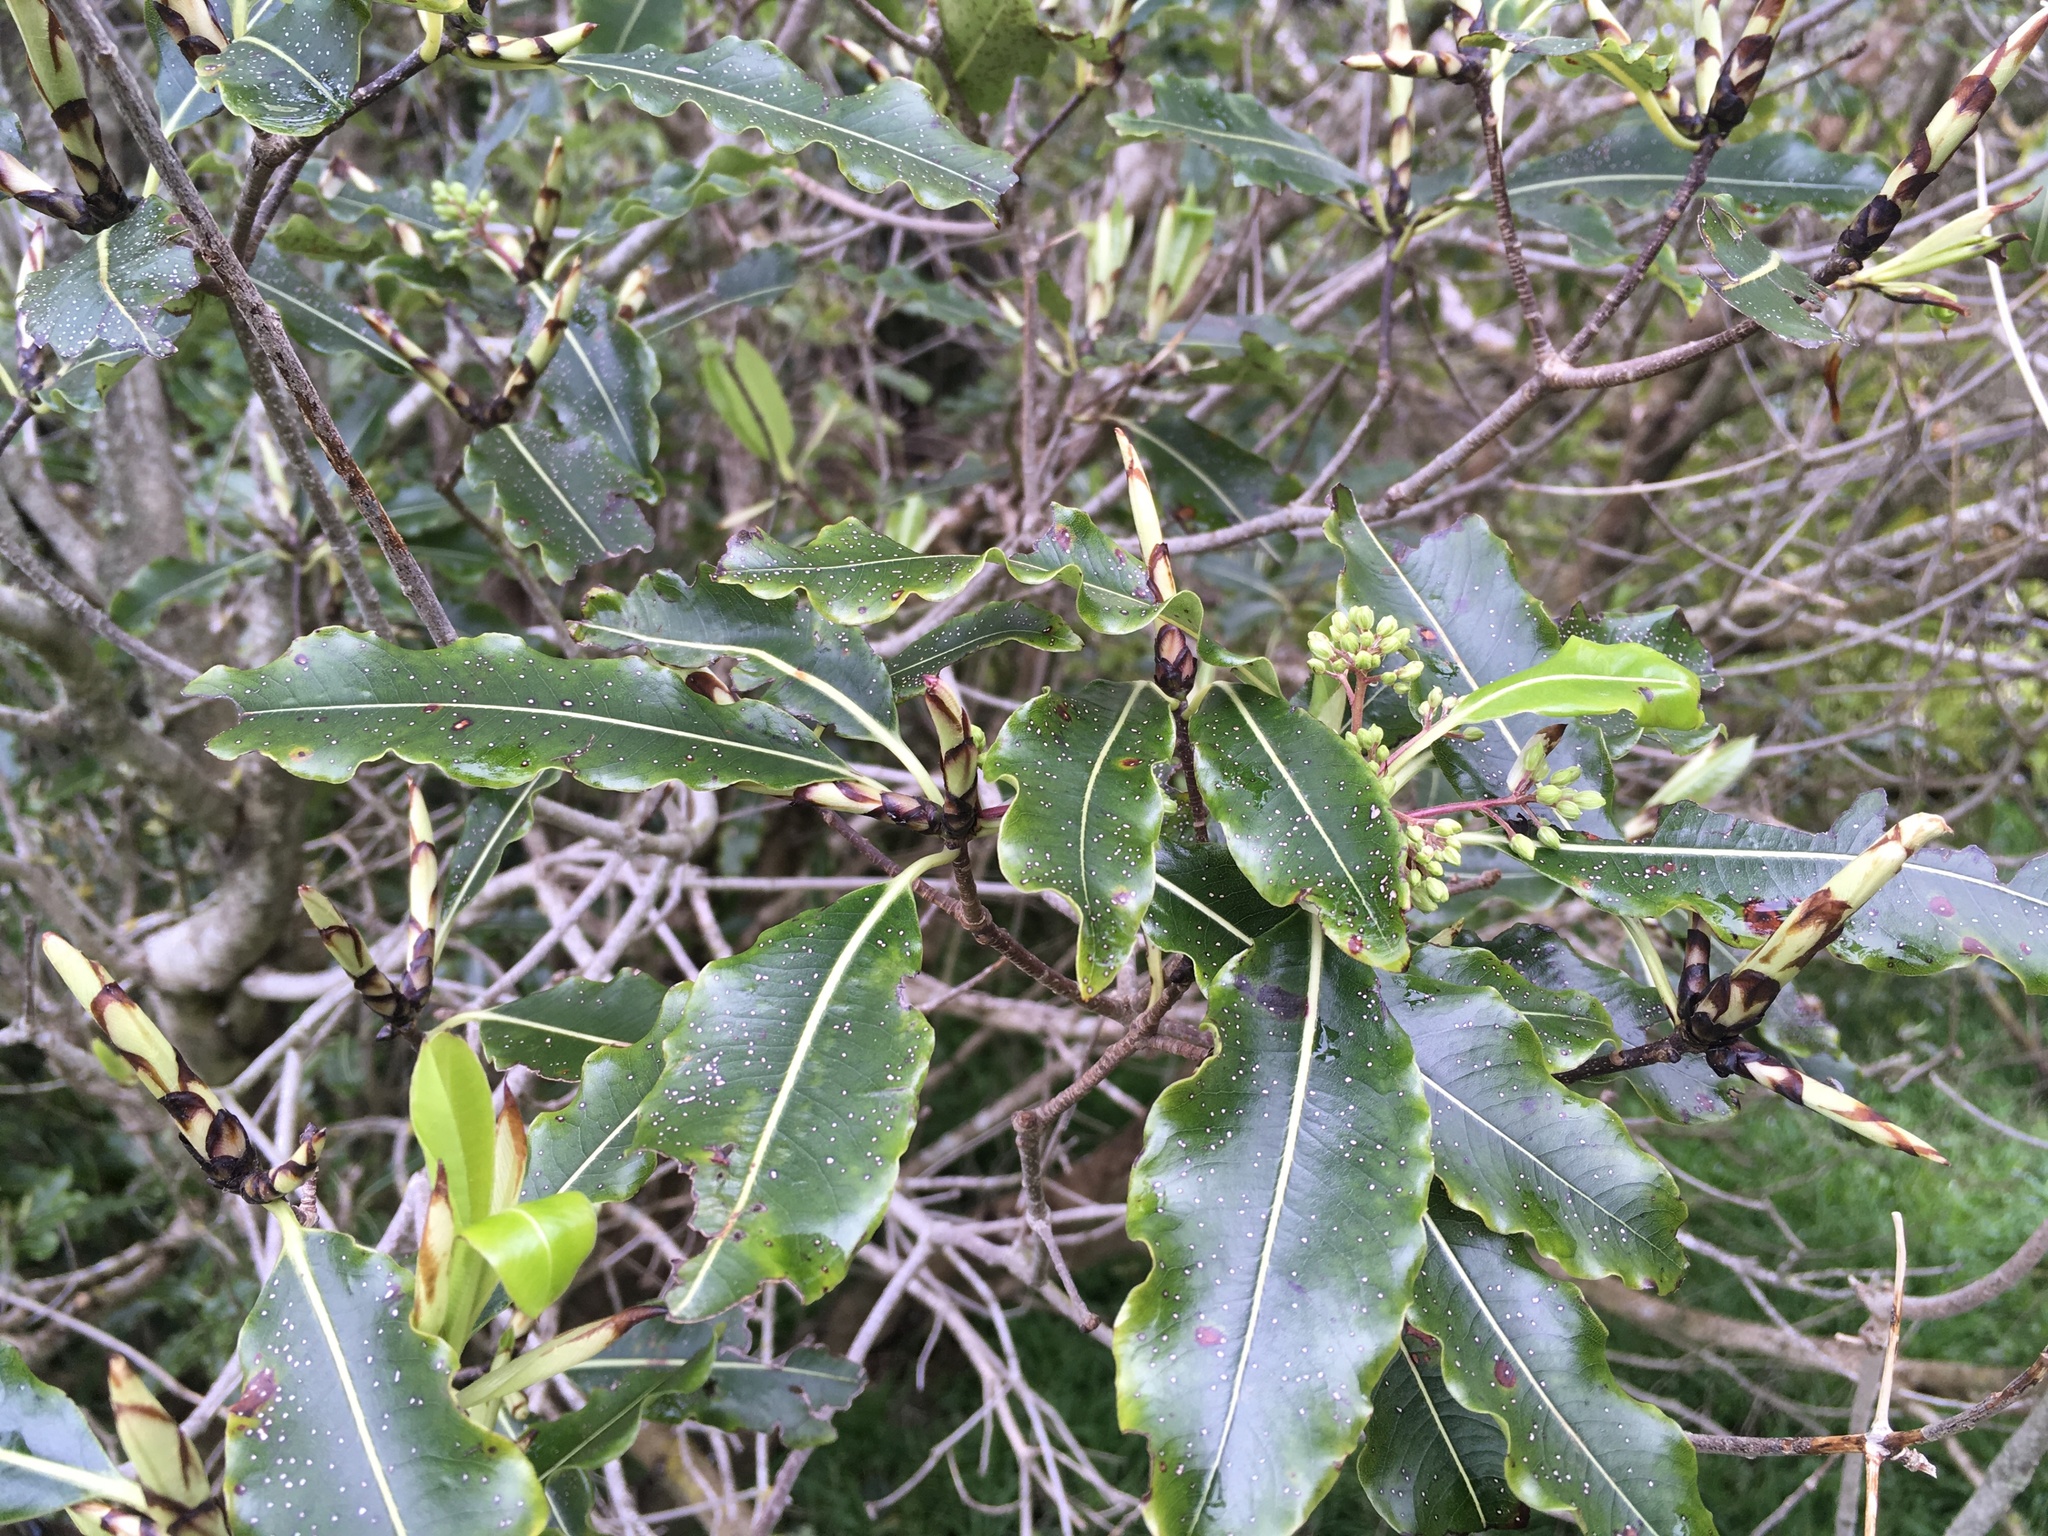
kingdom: Plantae
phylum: Tracheophyta
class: Magnoliopsida
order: Apiales
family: Pittosporaceae
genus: Pittosporum
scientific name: Pittosporum eugenioides
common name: Lemonwood
